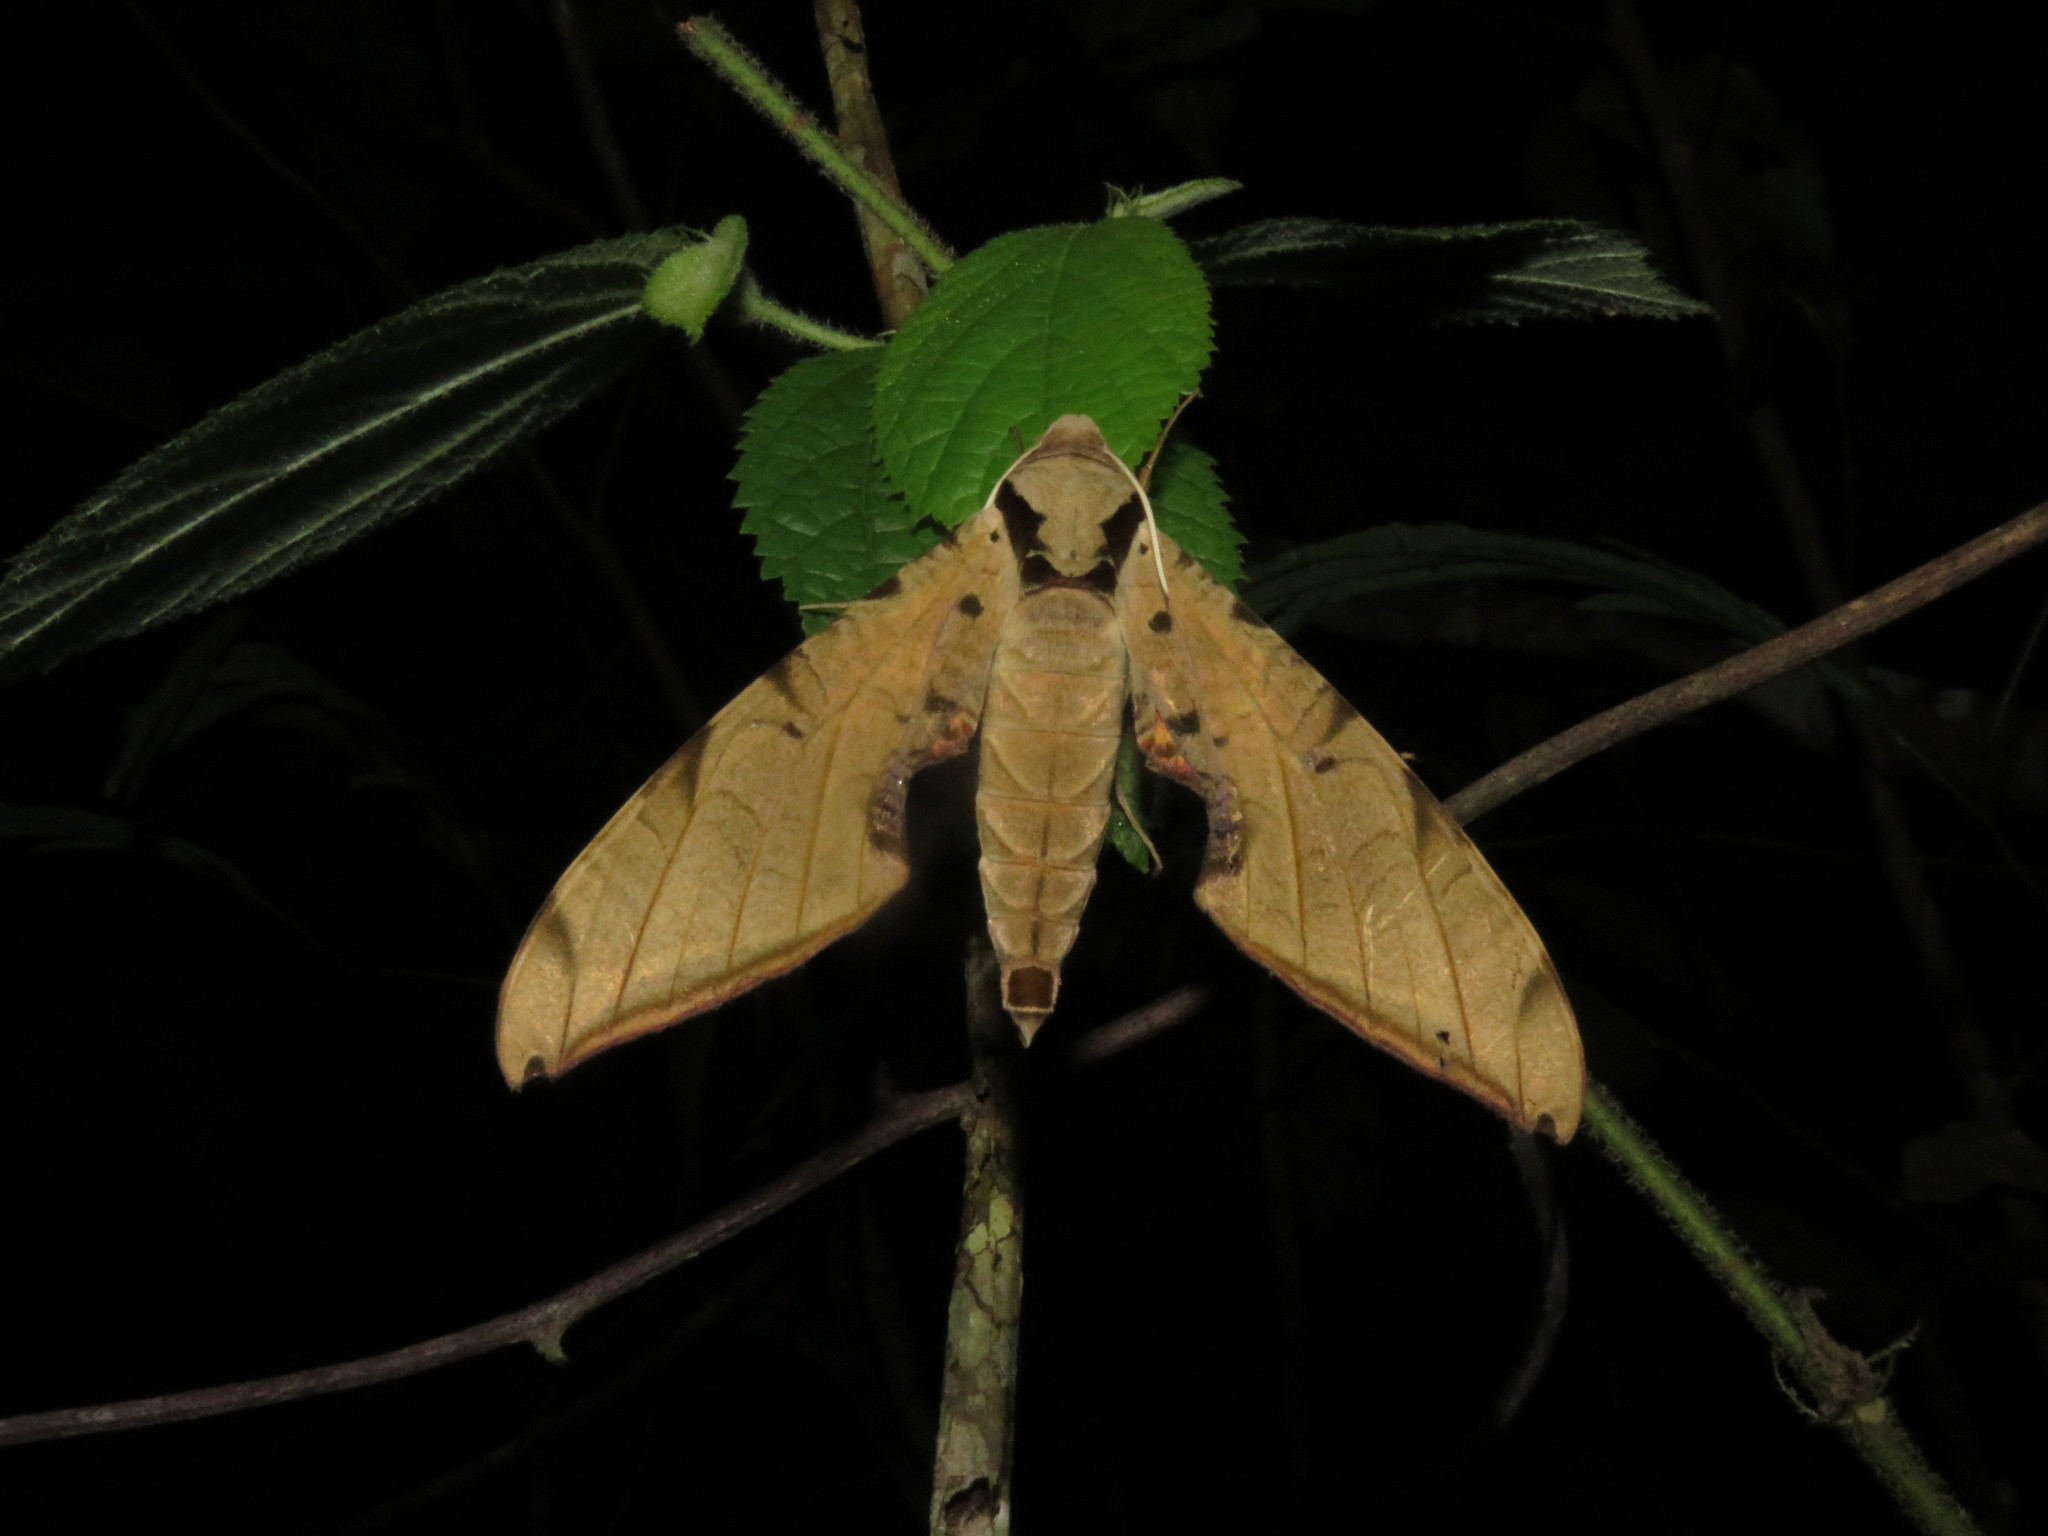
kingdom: Animalia
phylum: Arthropoda
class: Insecta
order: Lepidoptera
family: Sphingidae
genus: Protambulyx
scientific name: Protambulyx strigilis
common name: Streaked sphinx
